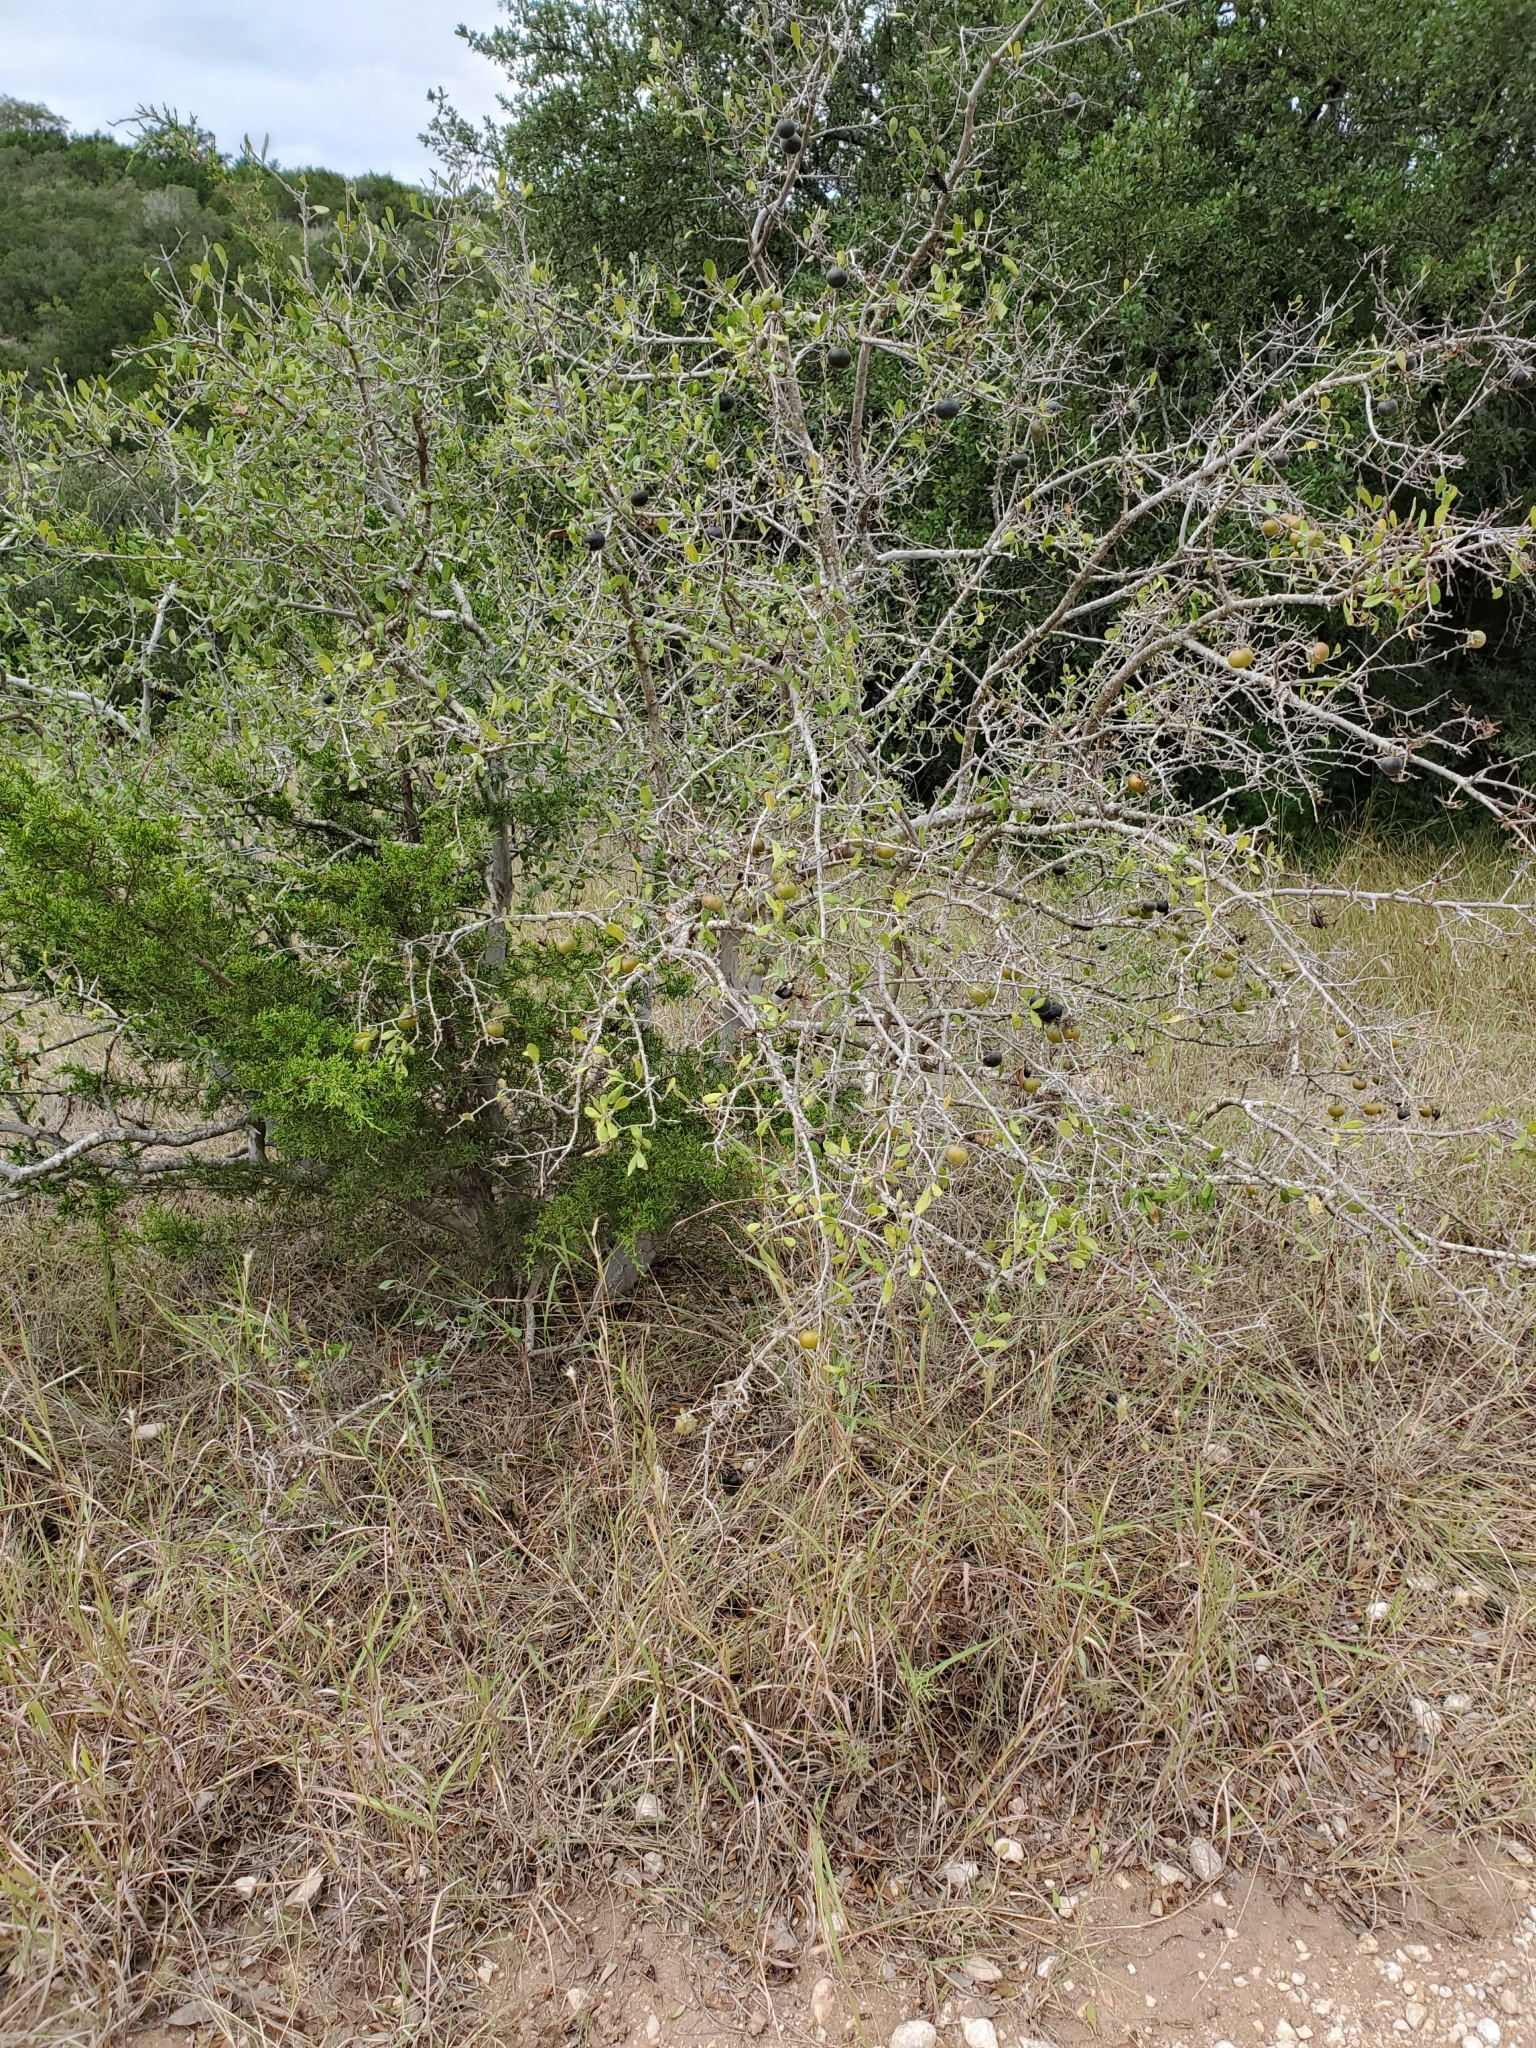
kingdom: Plantae
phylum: Tracheophyta
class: Magnoliopsida
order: Ericales
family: Ebenaceae
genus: Diospyros
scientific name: Diospyros texana
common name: Texas persimmon
